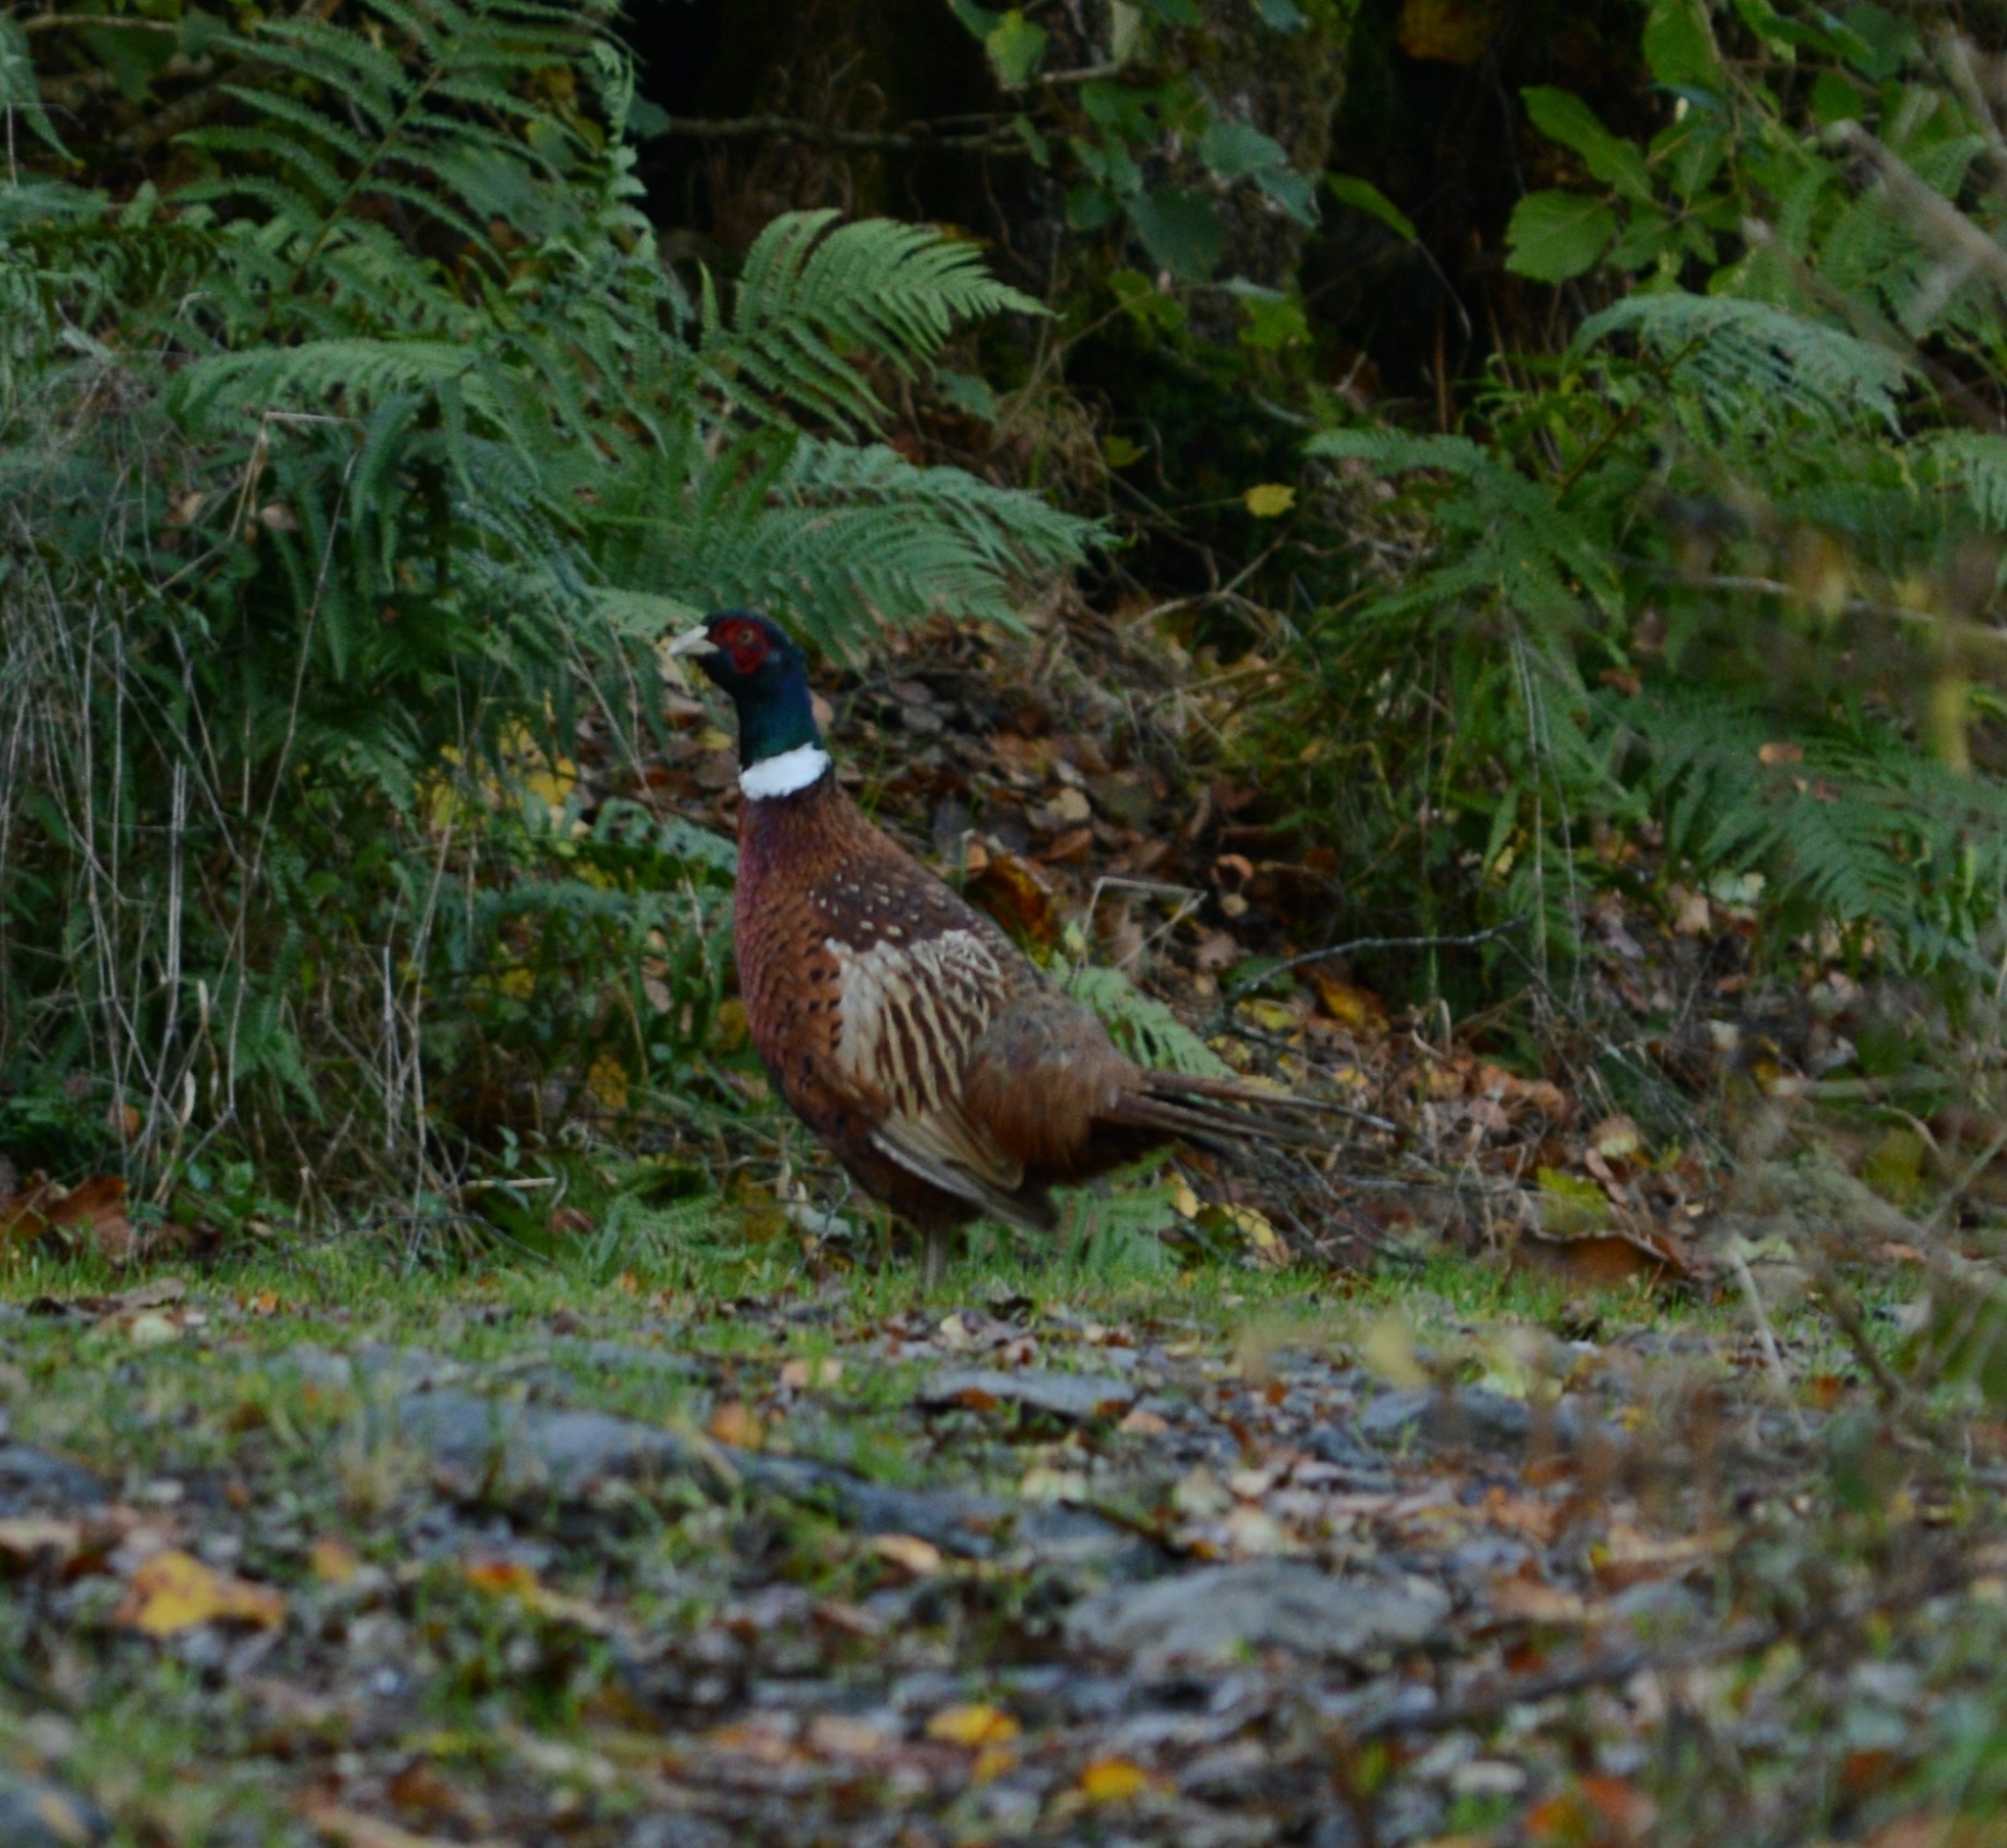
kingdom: Animalia
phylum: Chordata
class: Aves
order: Galliformes
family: Phasianidae
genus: Phasianus
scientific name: Phasianus colchicus
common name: Common pheasant
